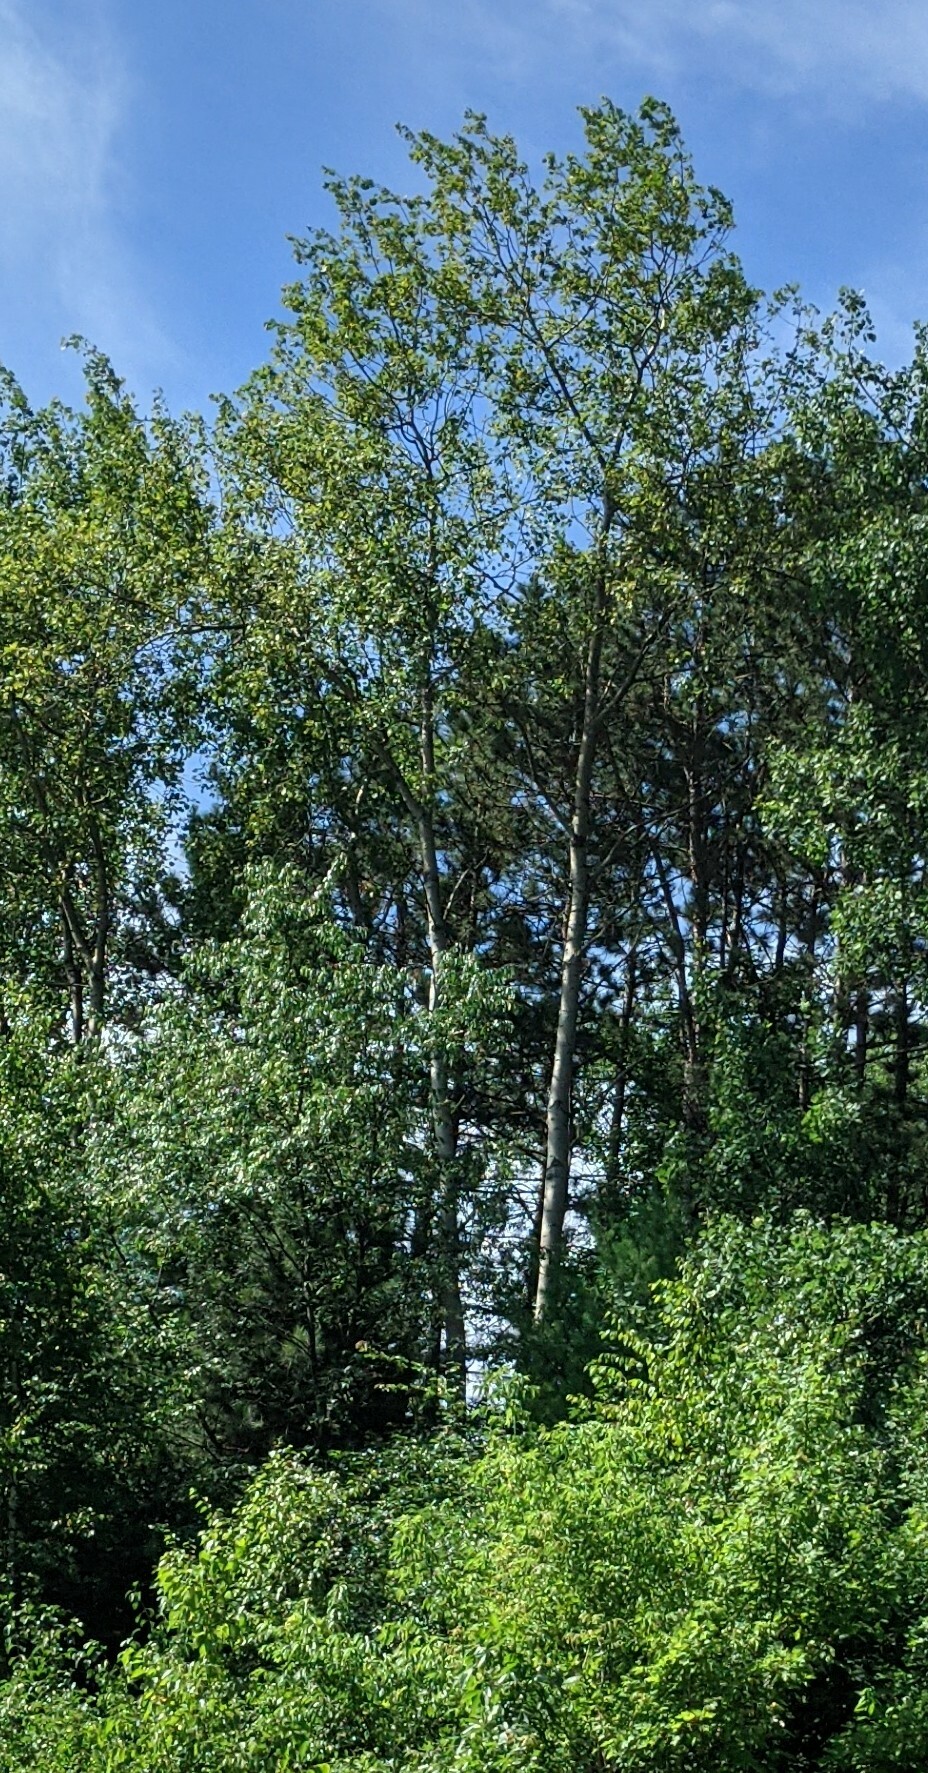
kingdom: Plantae
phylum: Tracheophyta
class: Magnoliopsida
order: Malpighiales
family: Salicaceae
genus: Populus
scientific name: Populus tremuloides
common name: Quaking aspen
